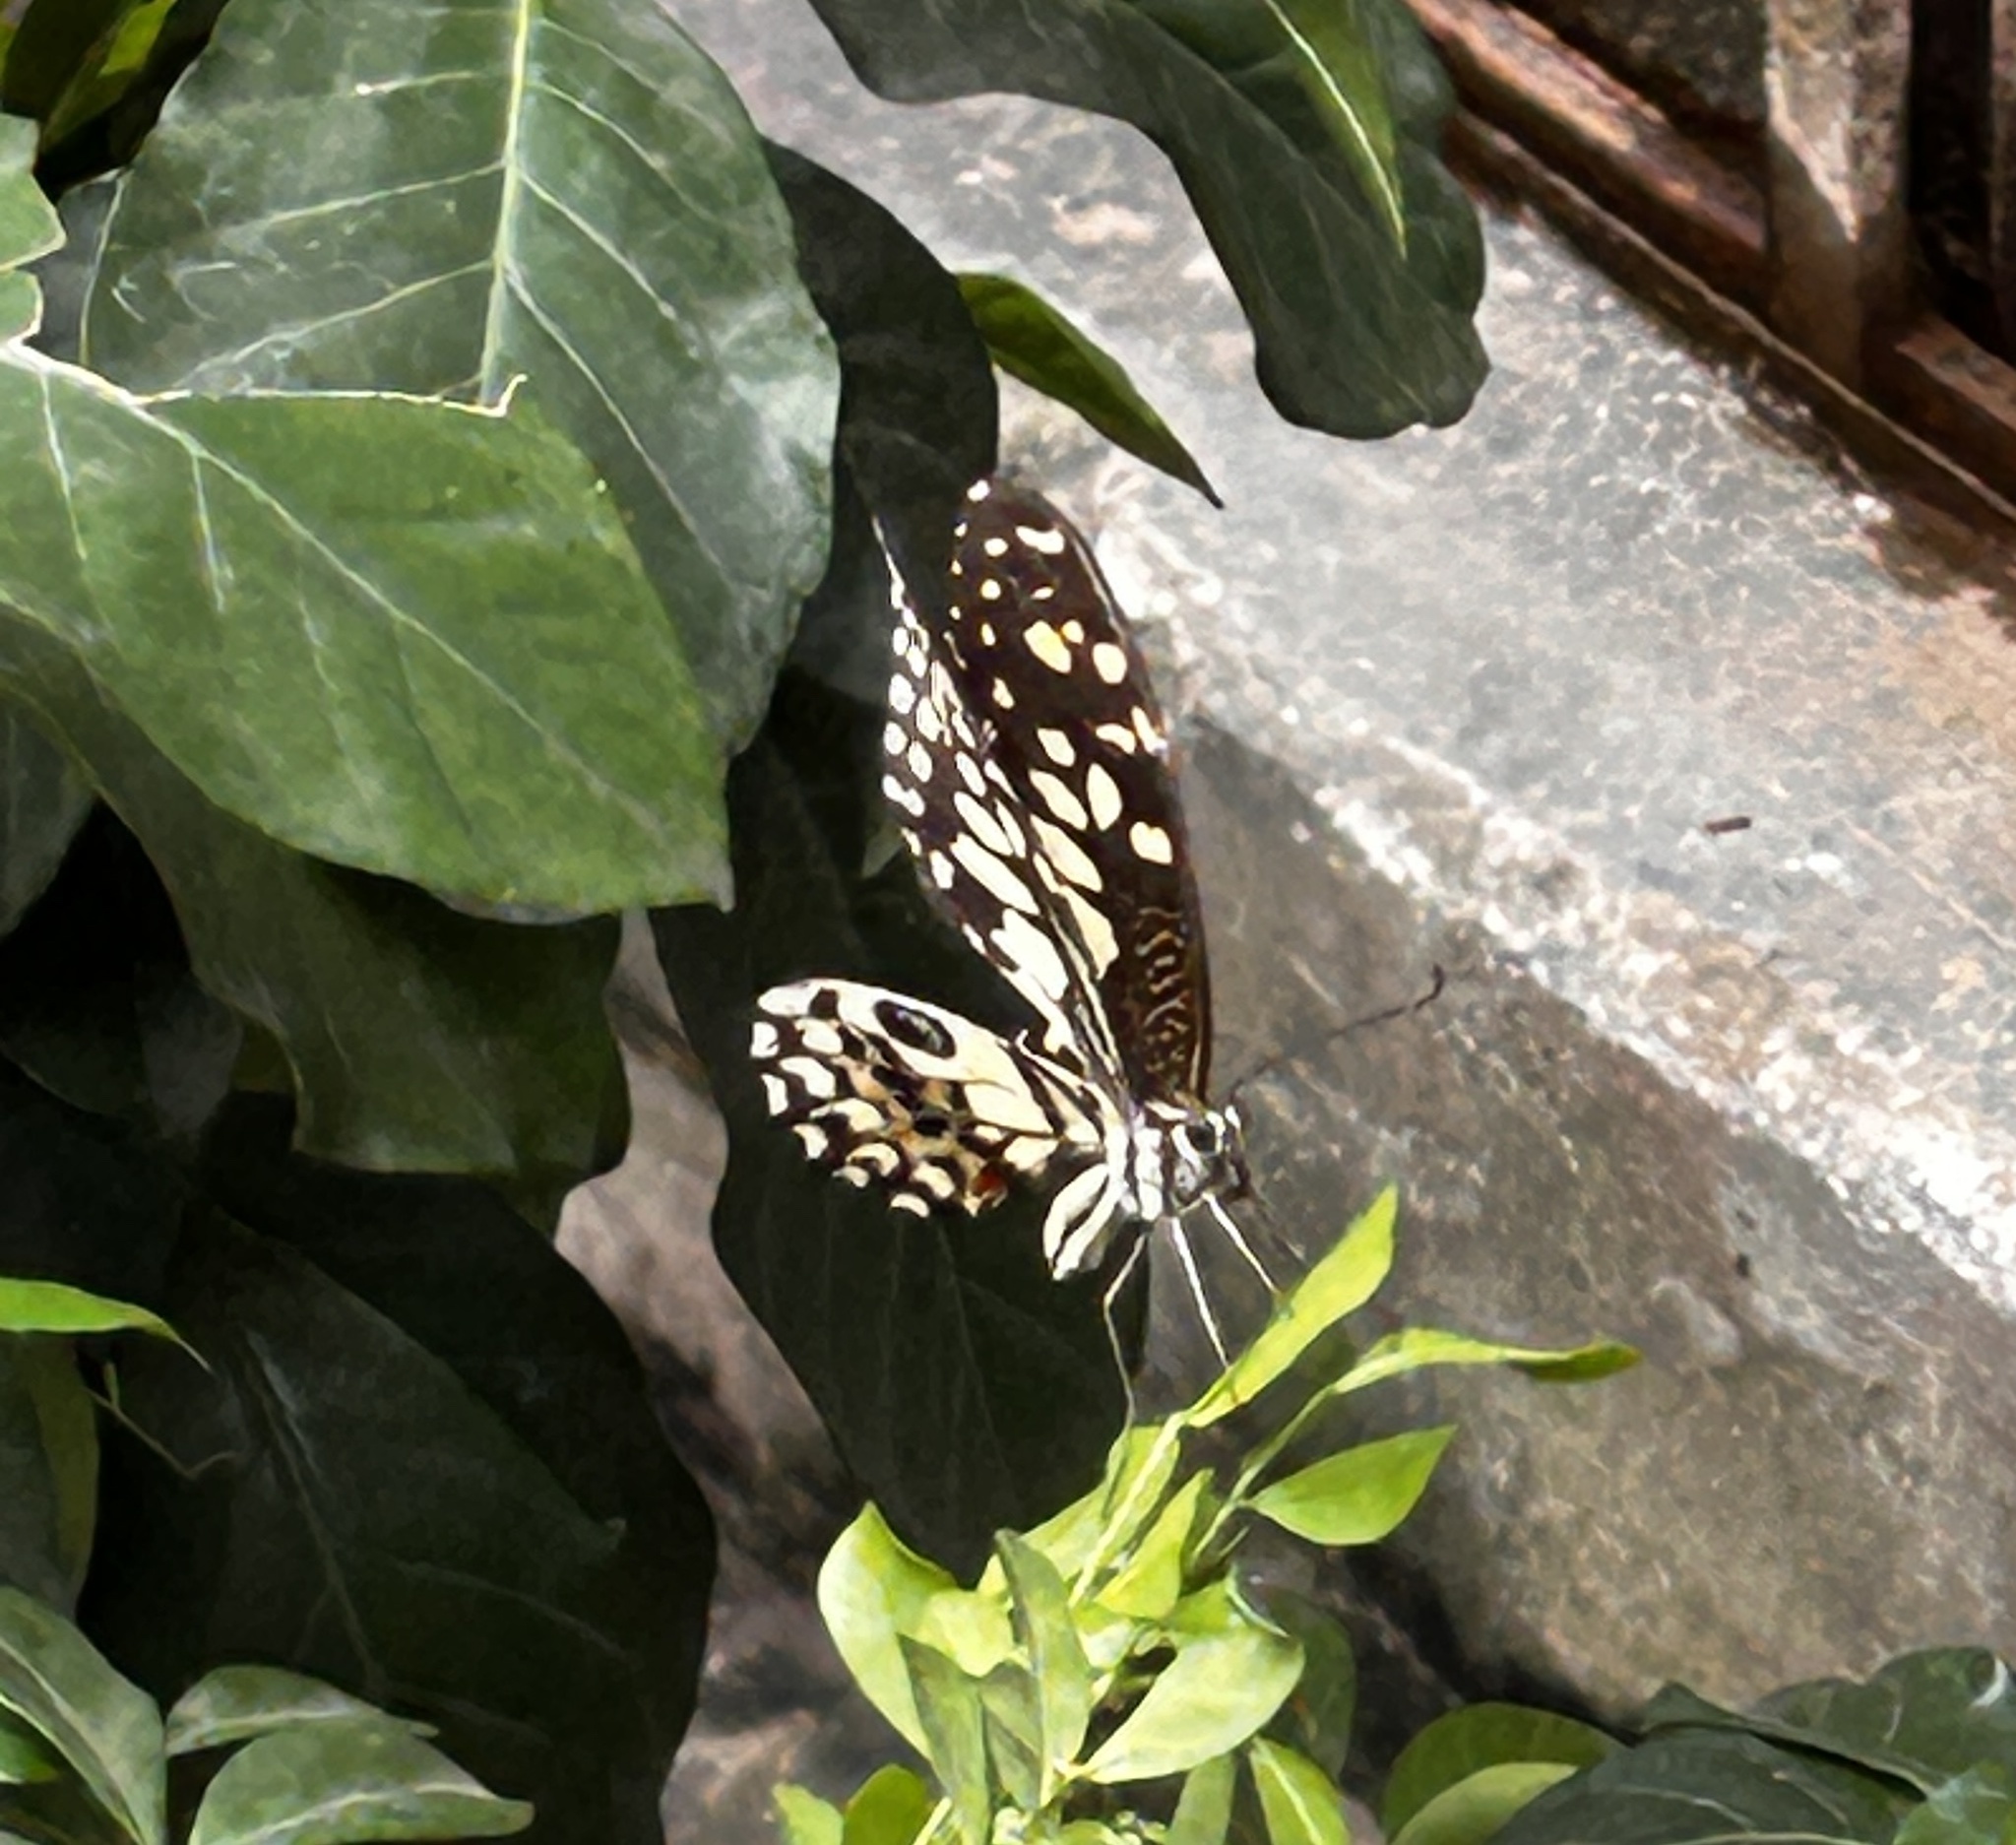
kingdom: Animalia
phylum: Arthropoda
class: Insecta
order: Lepidoptera
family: Papilionidae
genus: Papilio
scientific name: Papilio demoleus
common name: Lime butterfly
